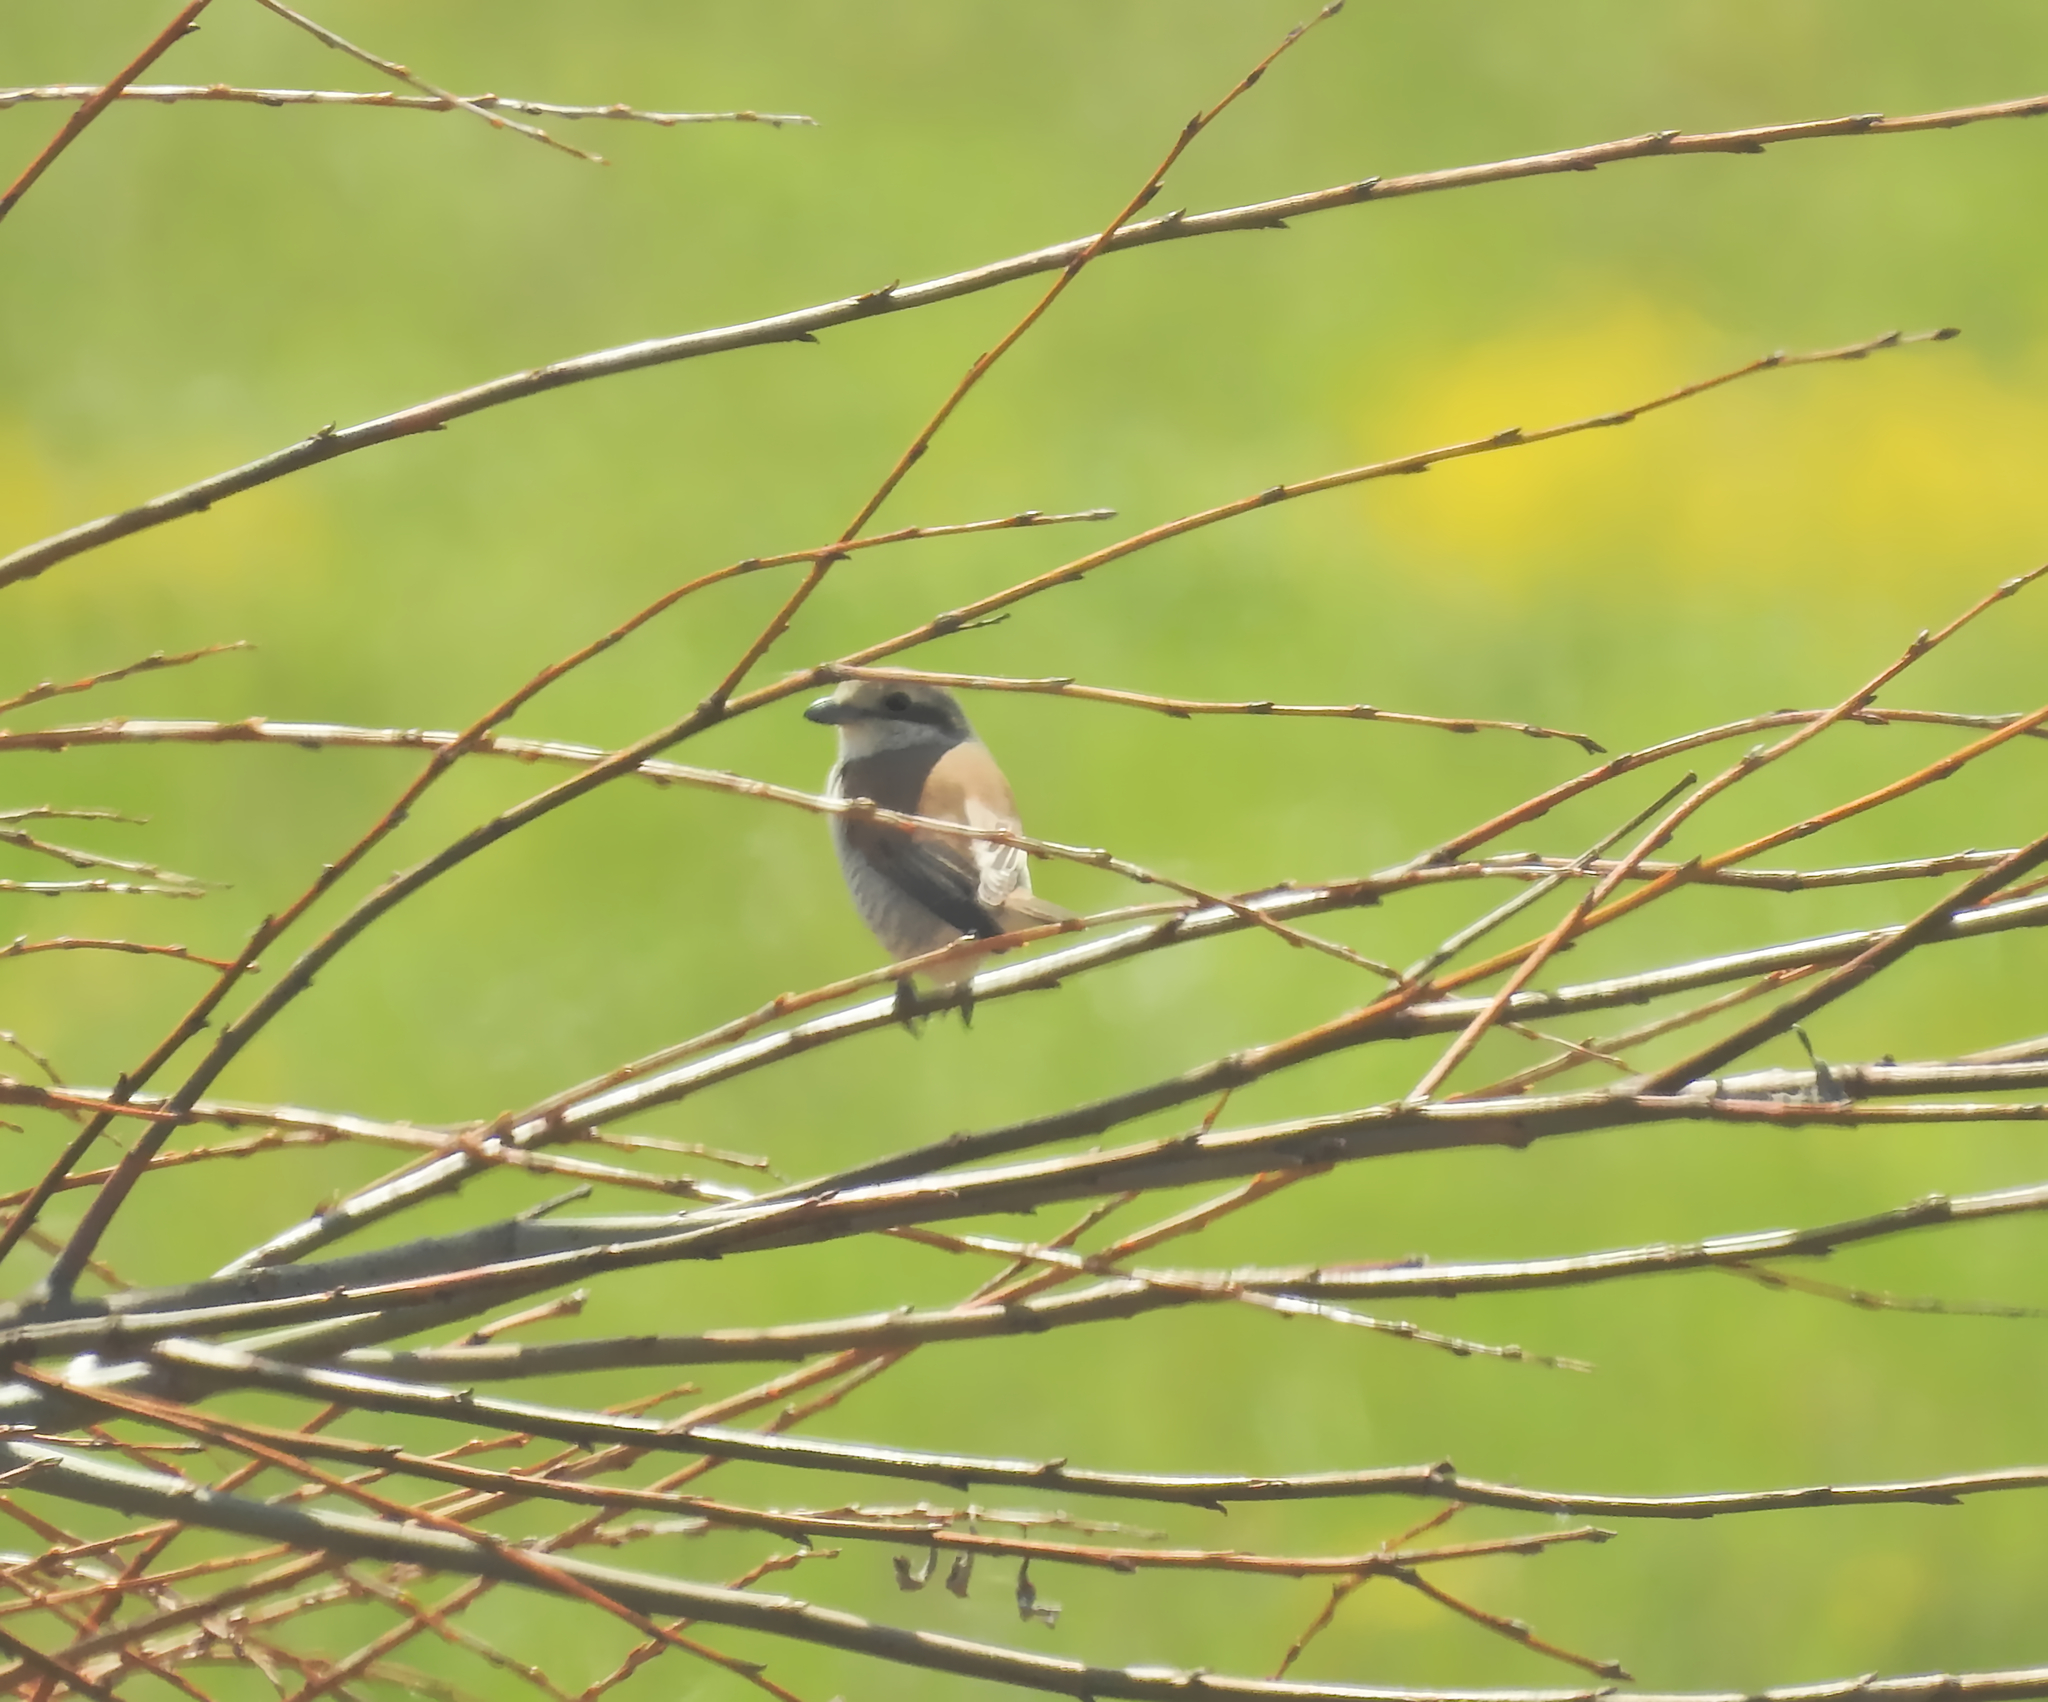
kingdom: Animalia
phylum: Chordata
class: Aves
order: Passeriformes
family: Laniidae
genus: Lanius
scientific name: Lanius collurio
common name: Red-backed shrike
